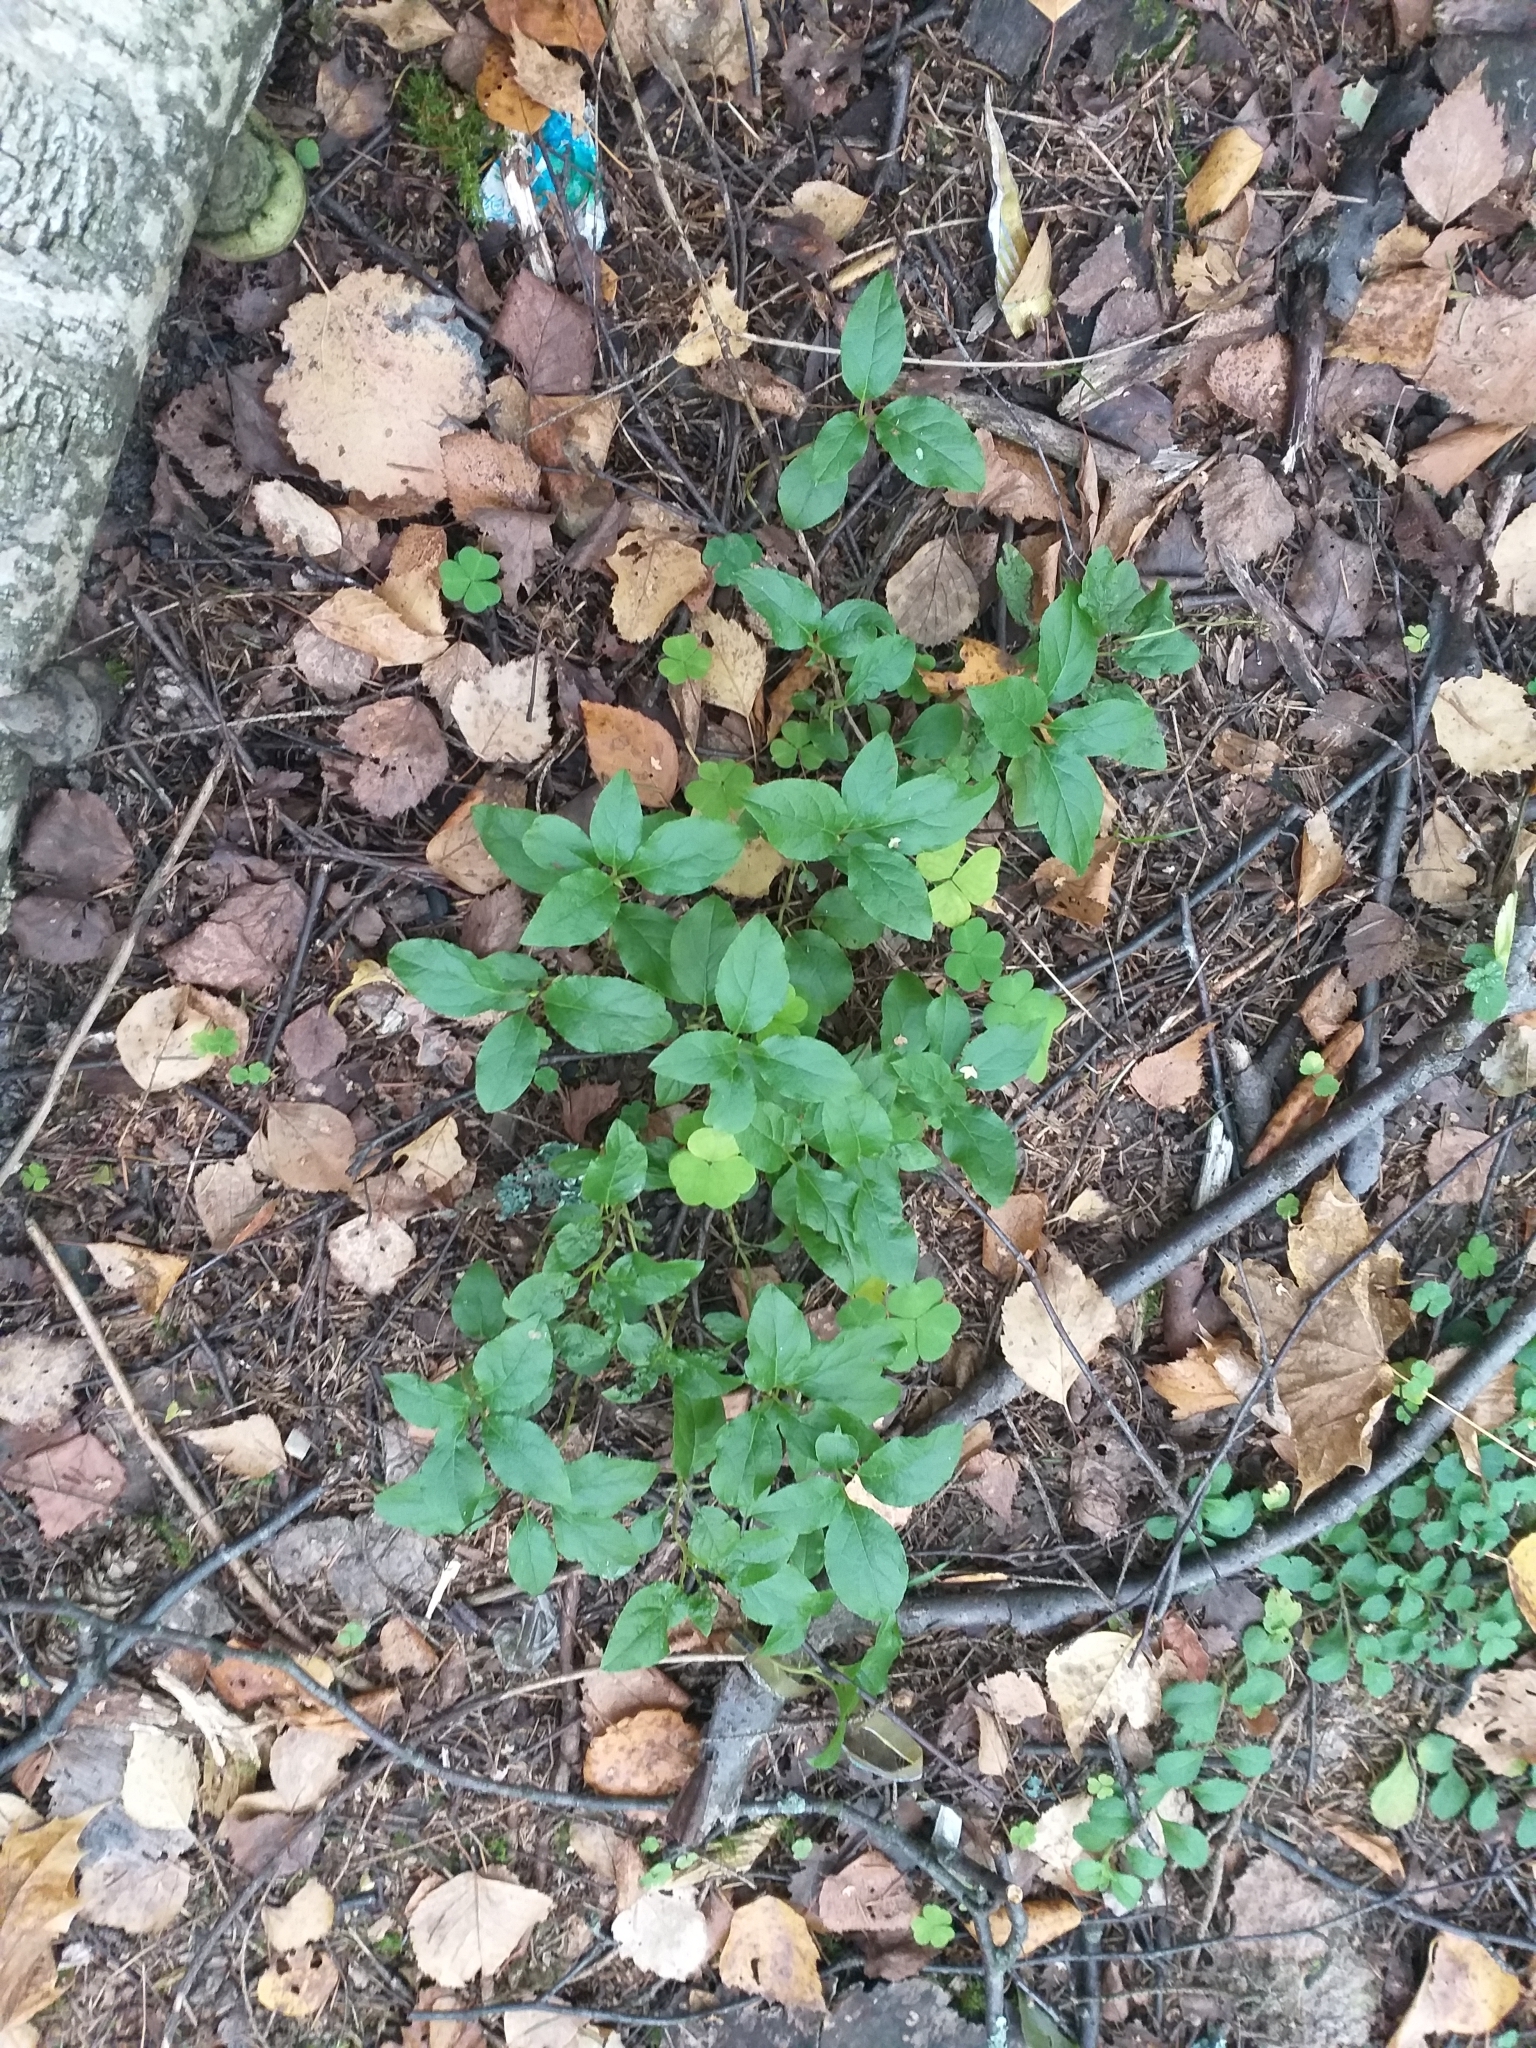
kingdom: Plantae
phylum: Tracheophyta
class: Magnoliopsida
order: Ericales
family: Ericaceae
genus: Orthilia
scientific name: Orthilia secunda
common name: One-sided orthilia
